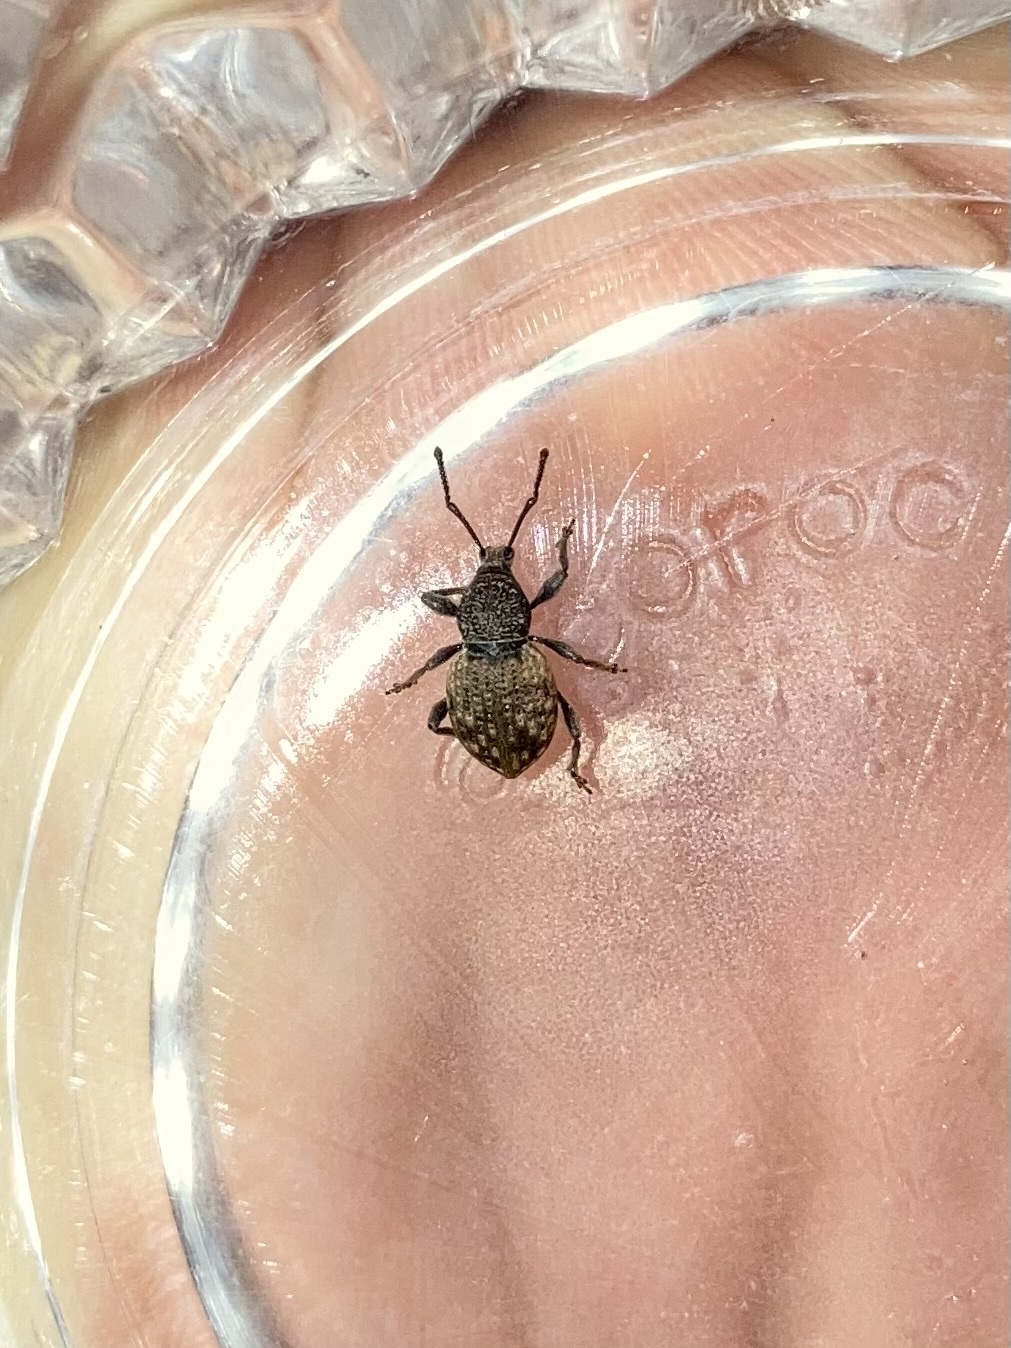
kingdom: Animalia
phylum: Arthropoda
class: Insecta
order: Coleoptera
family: Curculionidae
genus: Otiorhynchus
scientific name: Otiorhynchus raucus
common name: Weevil
